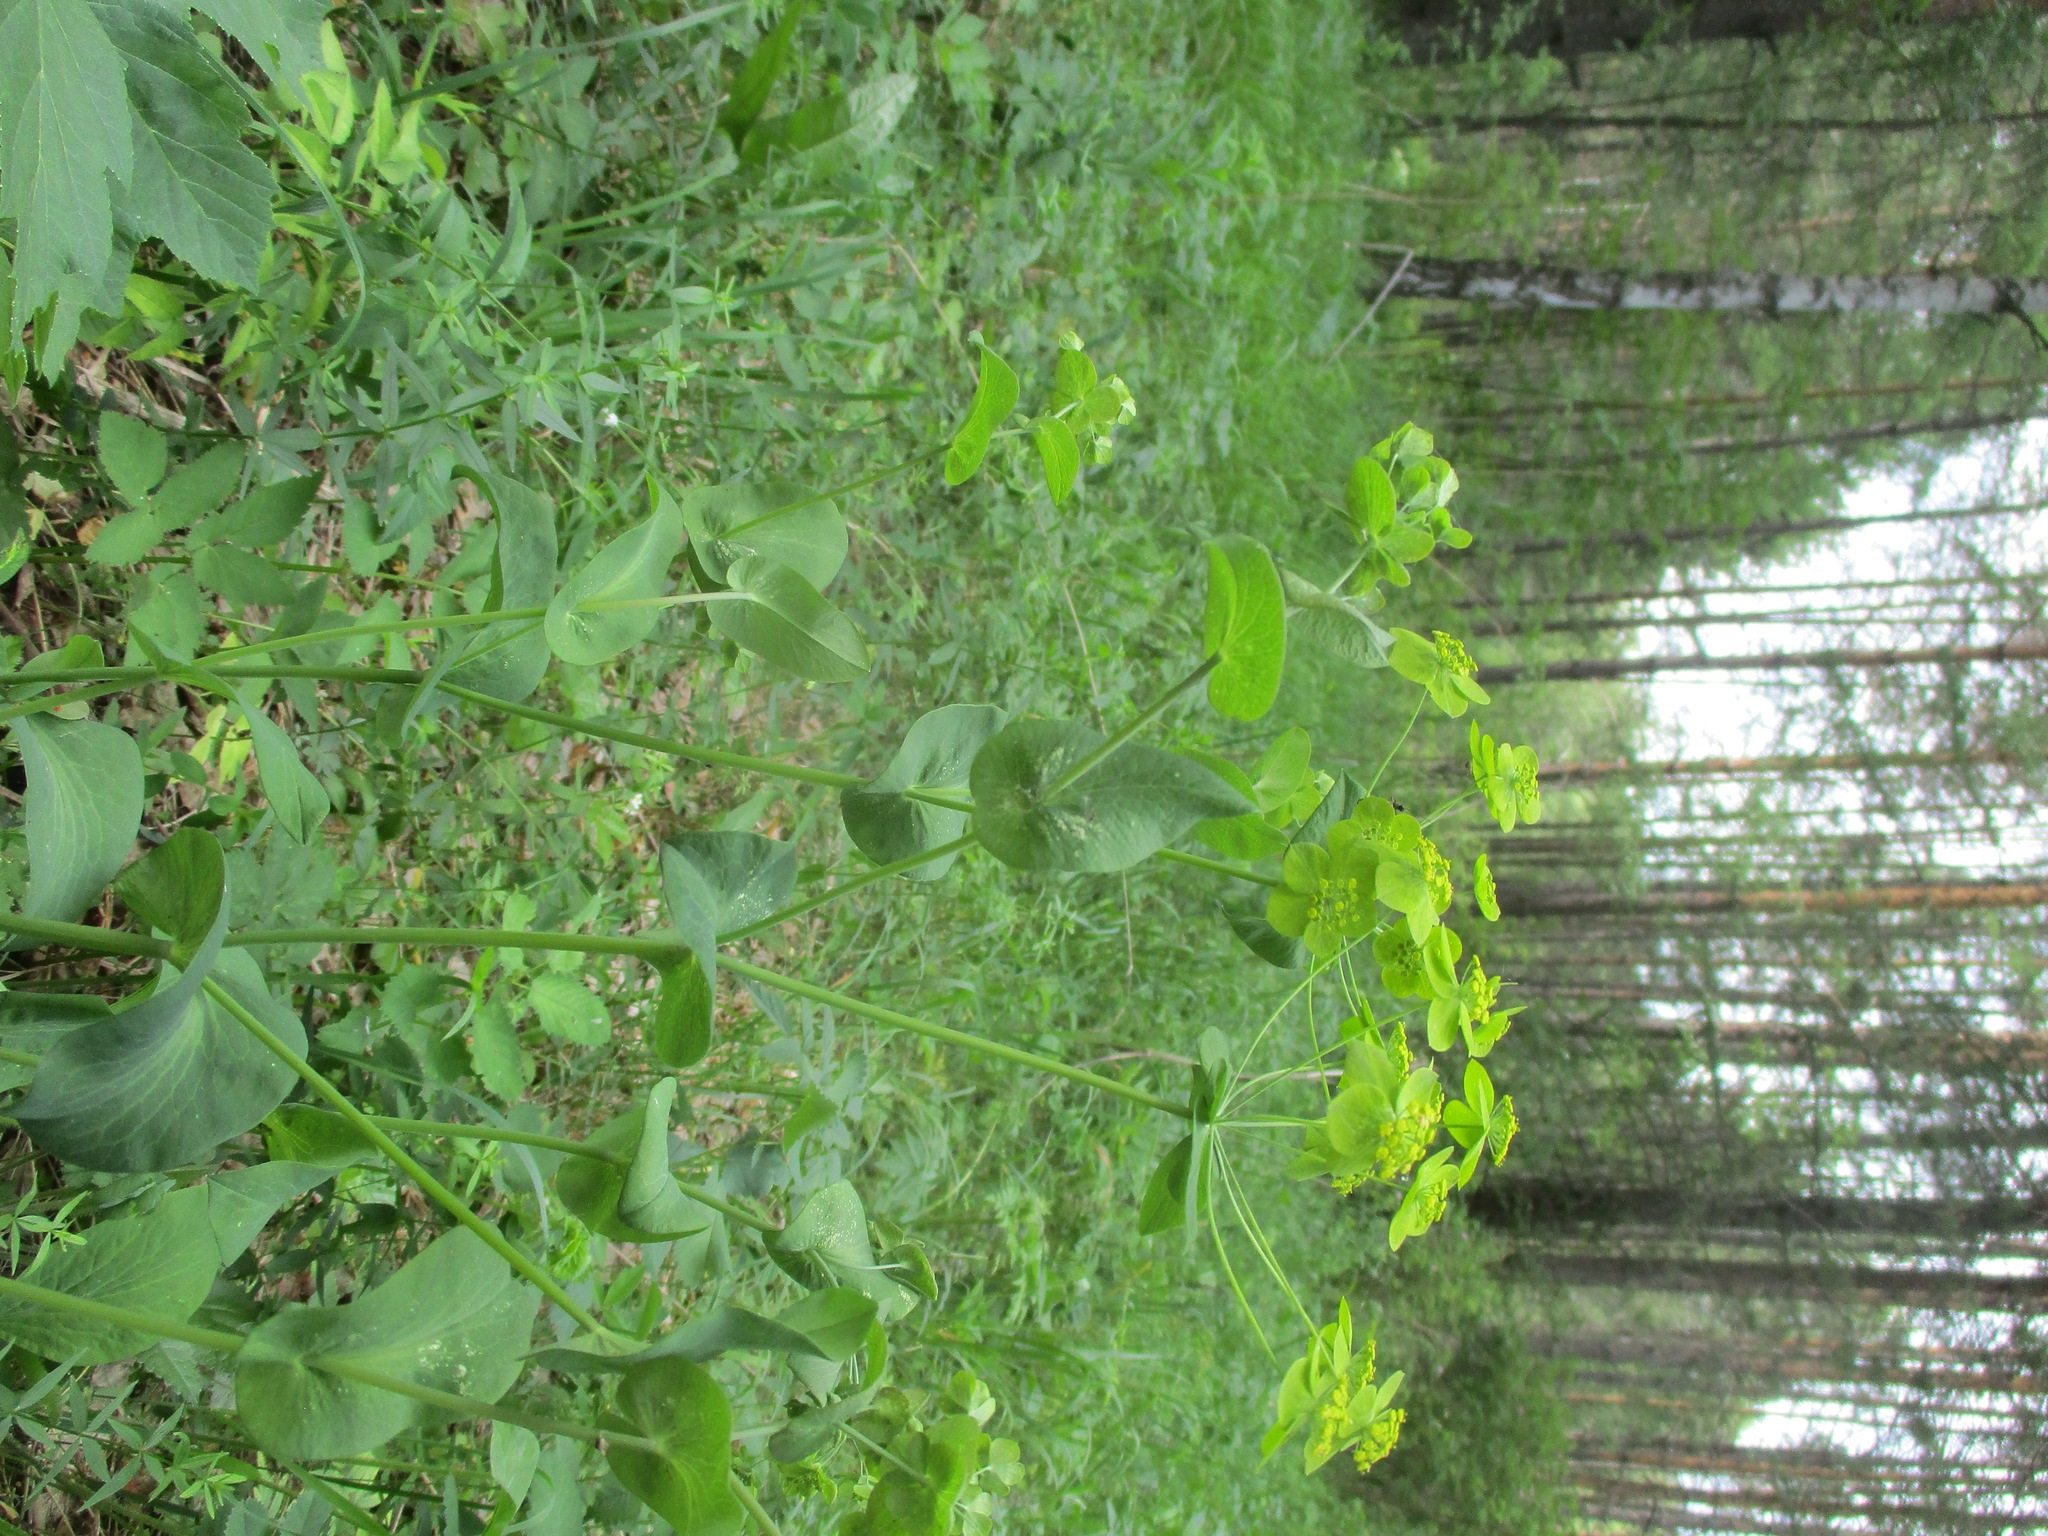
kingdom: Plantae
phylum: Tracheophyta
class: Magnoliopsida
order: Apiales
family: Apiaceae
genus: Bupleurum
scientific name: Bupleurum aureum
